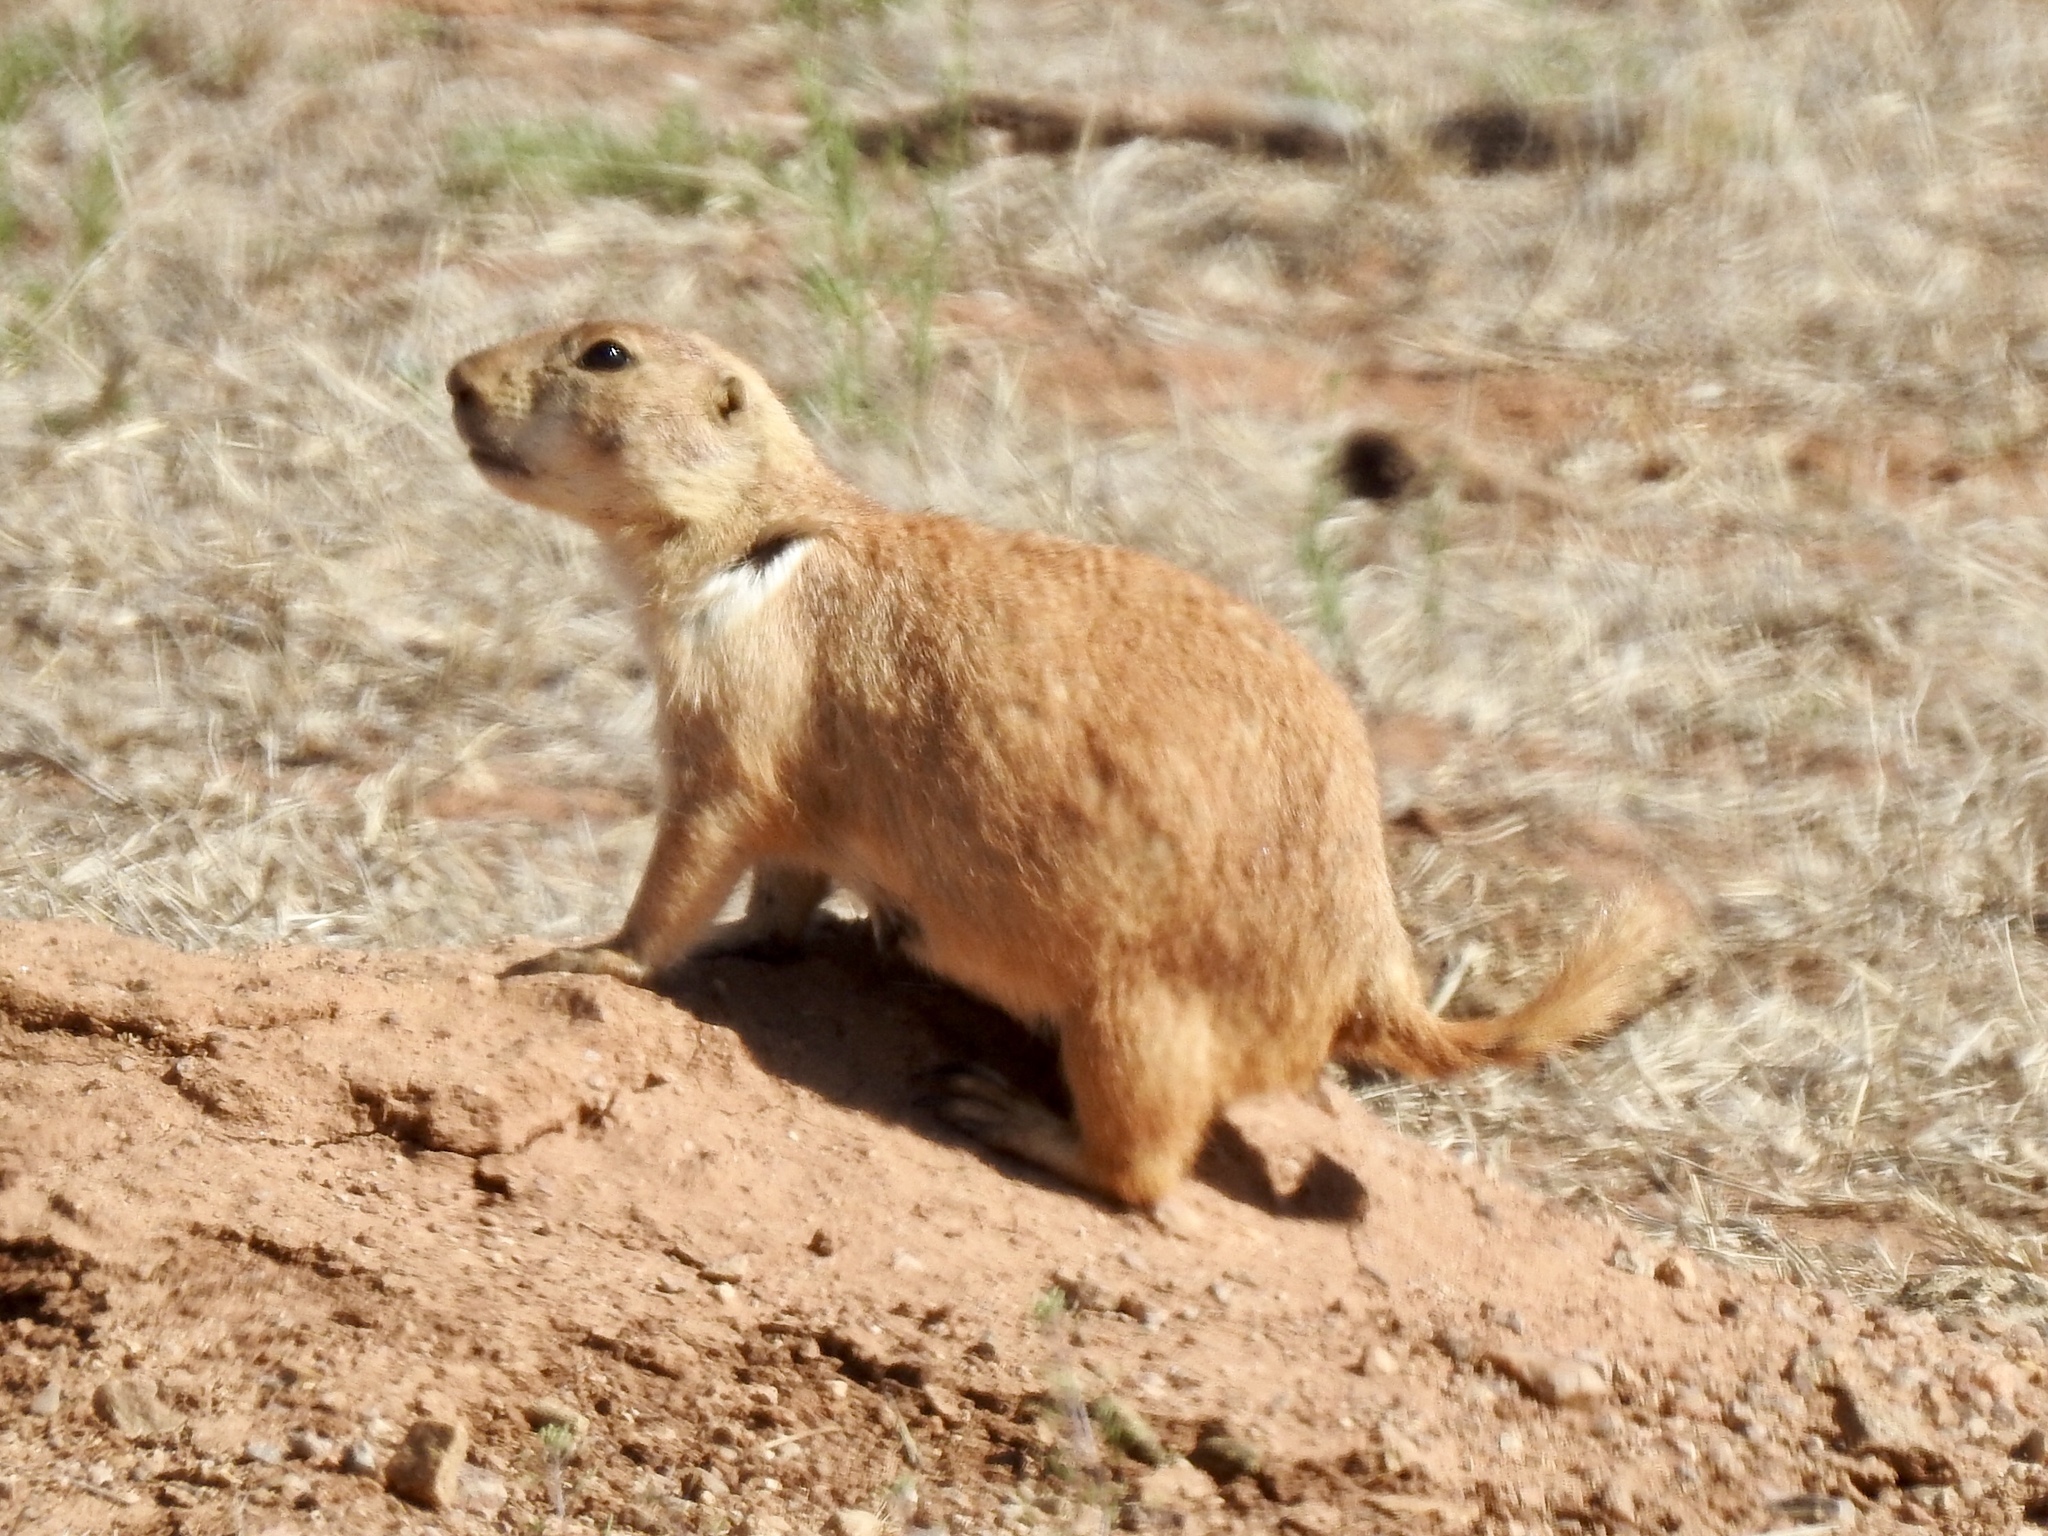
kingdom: Animalia
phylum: Chordata
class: Mammalia
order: Rodentia
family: Sciuridae
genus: Cynomys
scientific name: Cynomys ludovicianus
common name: Black-tailed prairie dog
